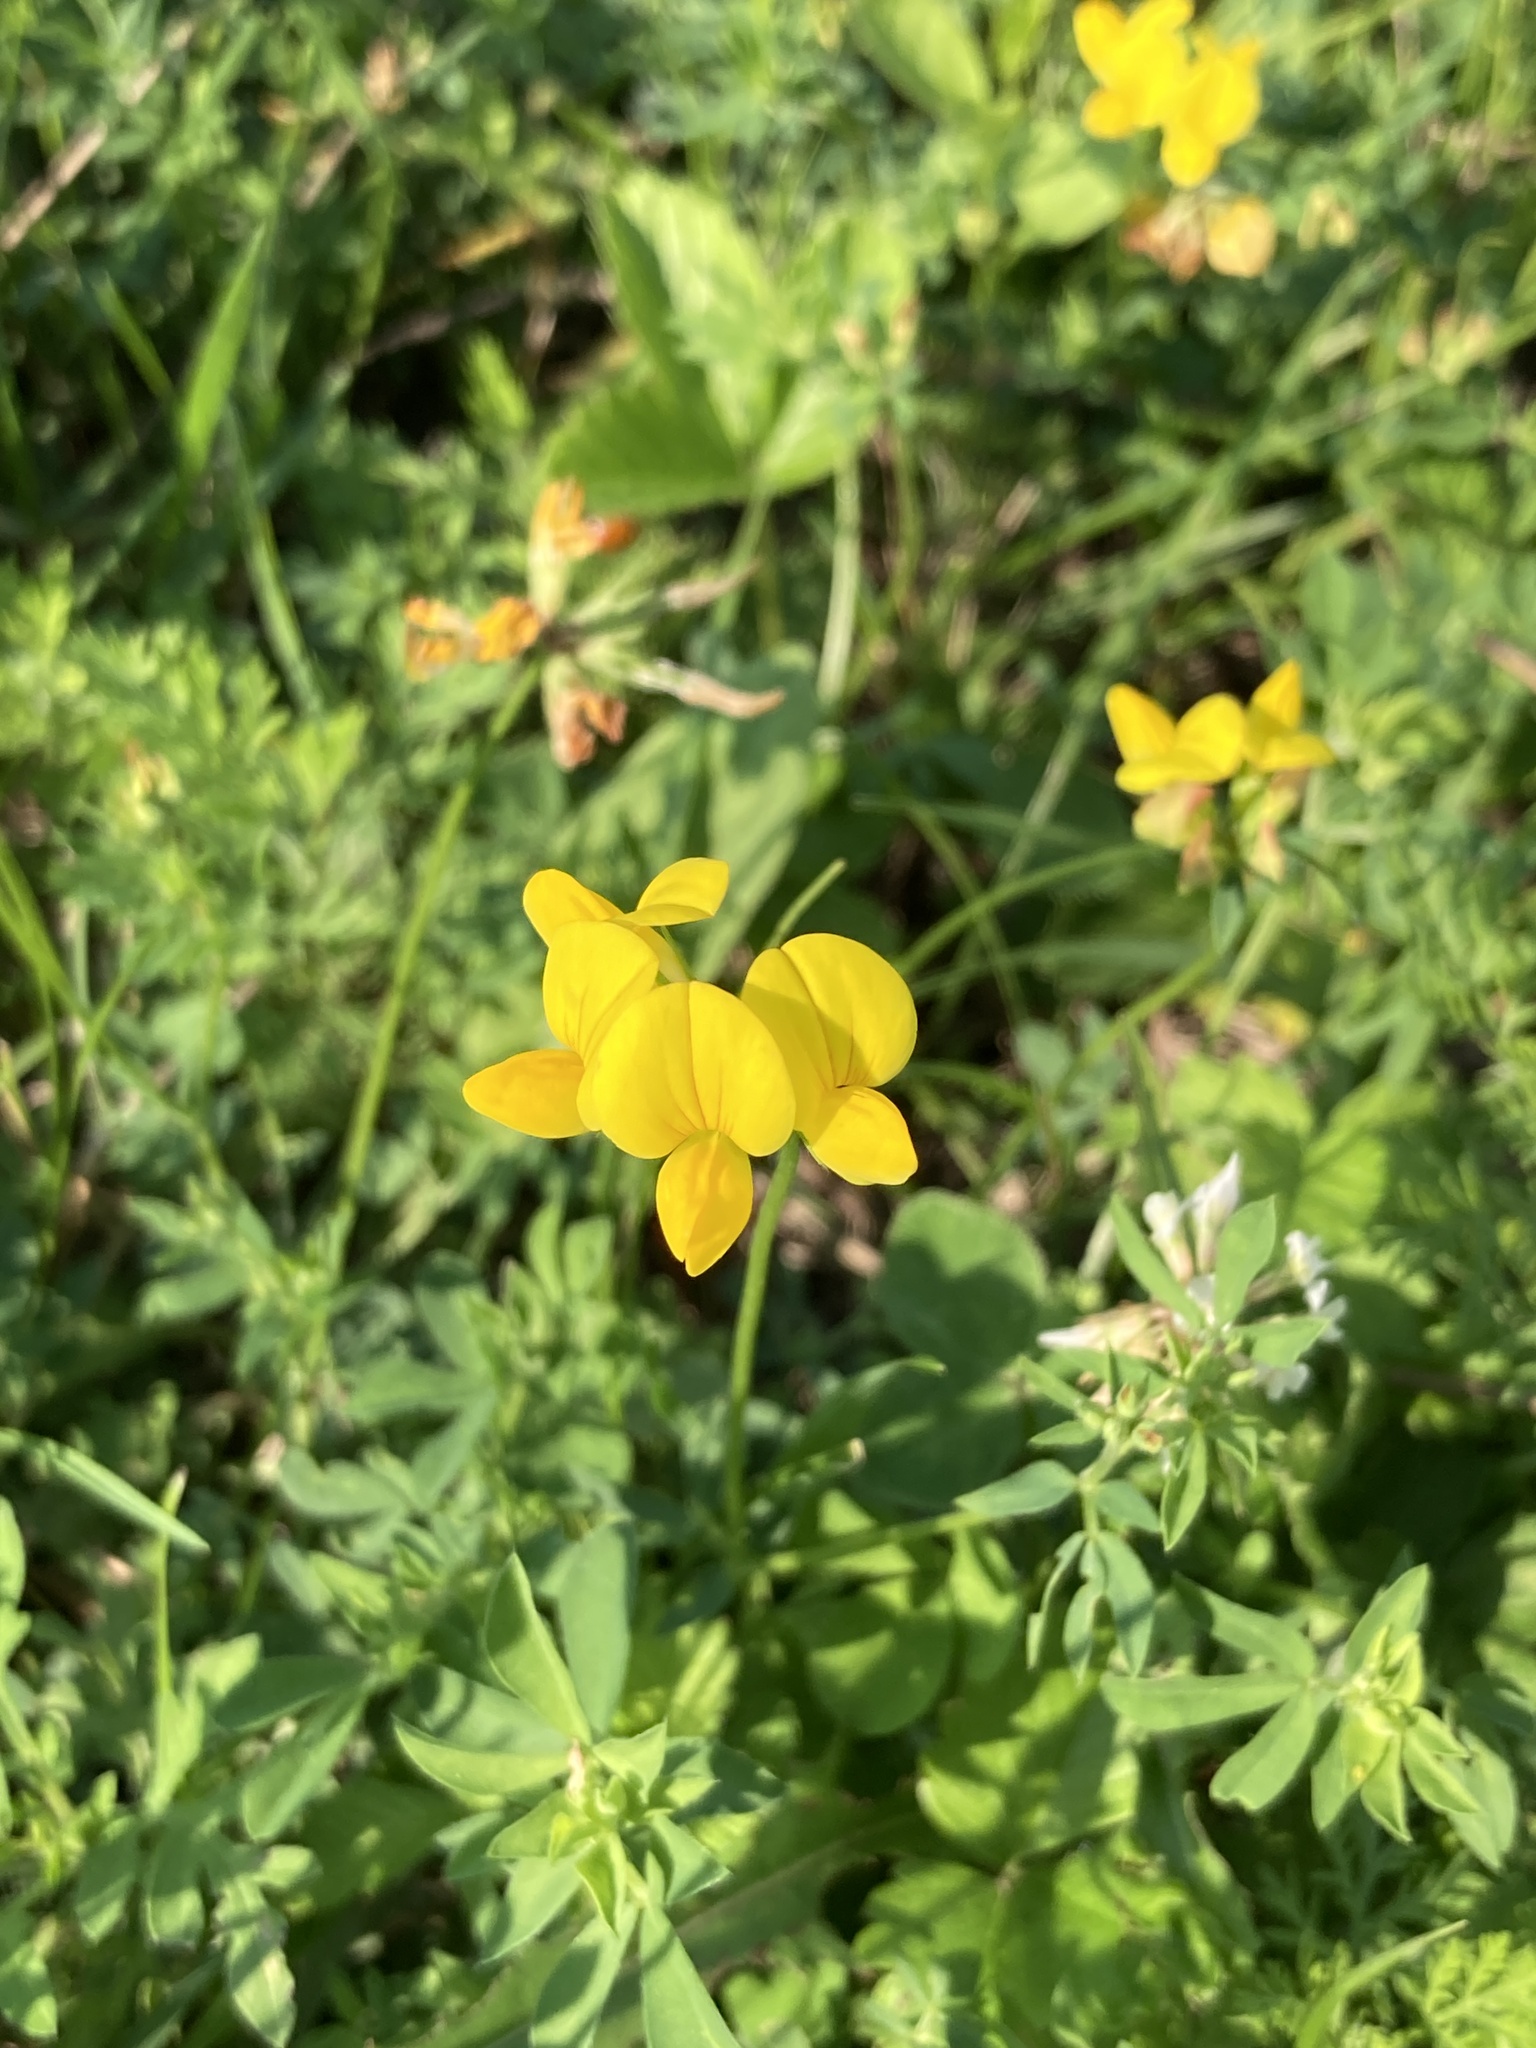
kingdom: Plantae
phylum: Tracheophyta
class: Magnoliopsida
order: Fabales
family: Fabaceae
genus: Lotus
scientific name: Lotus corniculatus
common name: Common bird's-foot-trefoil
